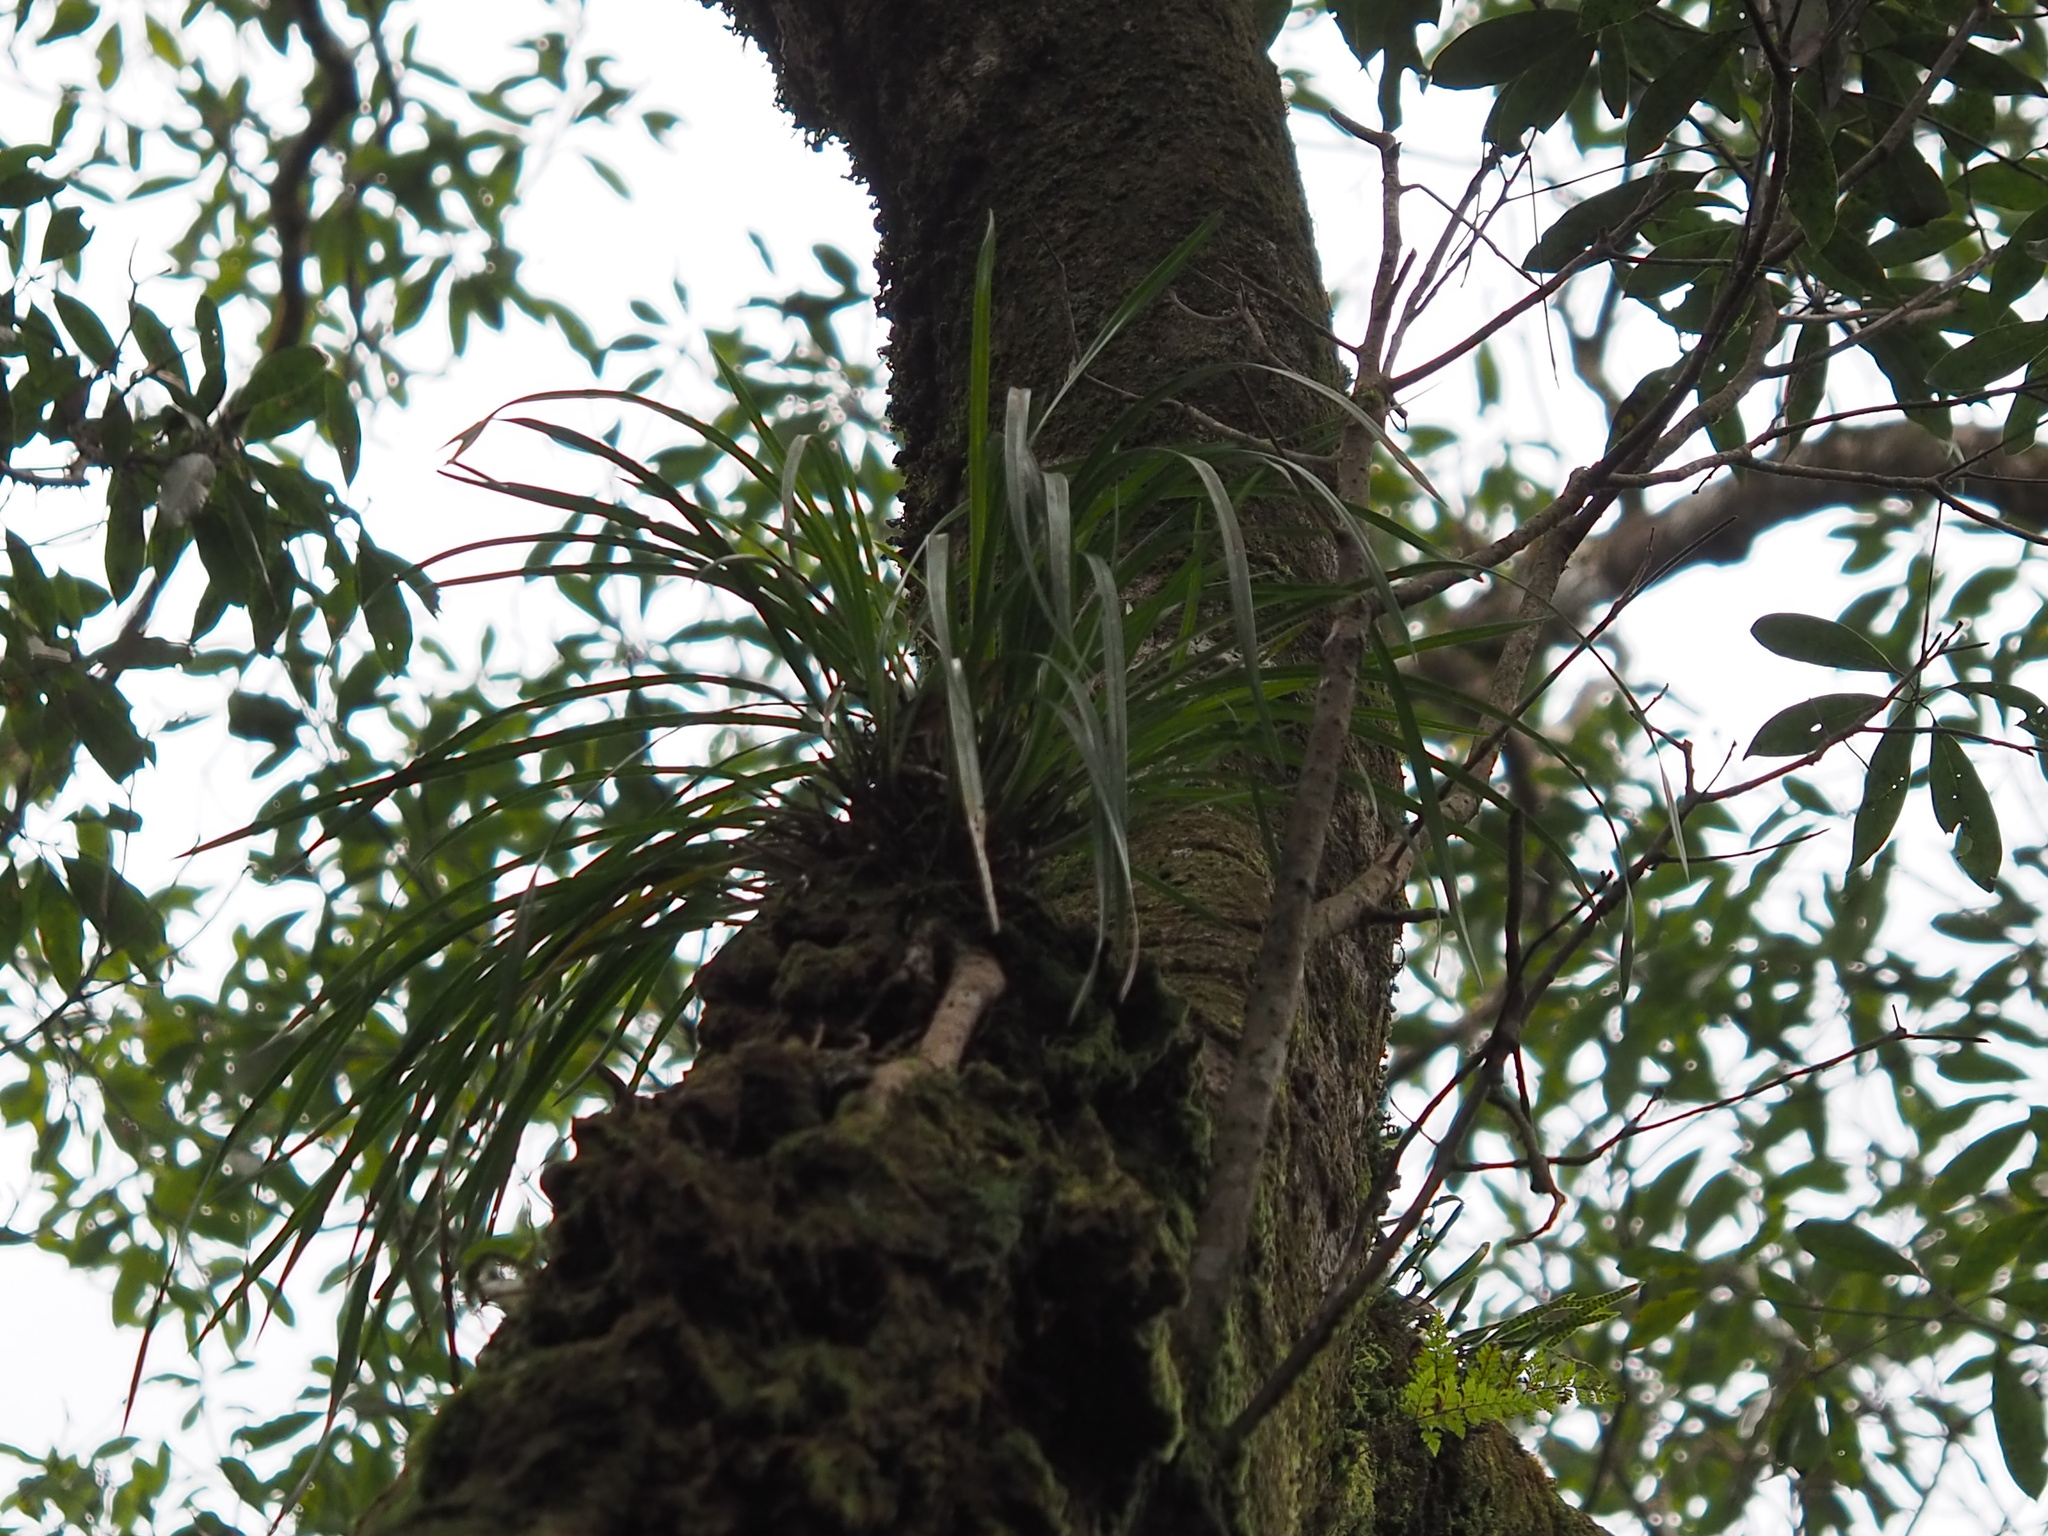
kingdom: Plantae
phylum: Tracheophyta
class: Liliopsida
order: Asparagales
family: Orchidaceae
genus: Cymbidium
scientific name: Cymbidium dayanum
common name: Orchid
